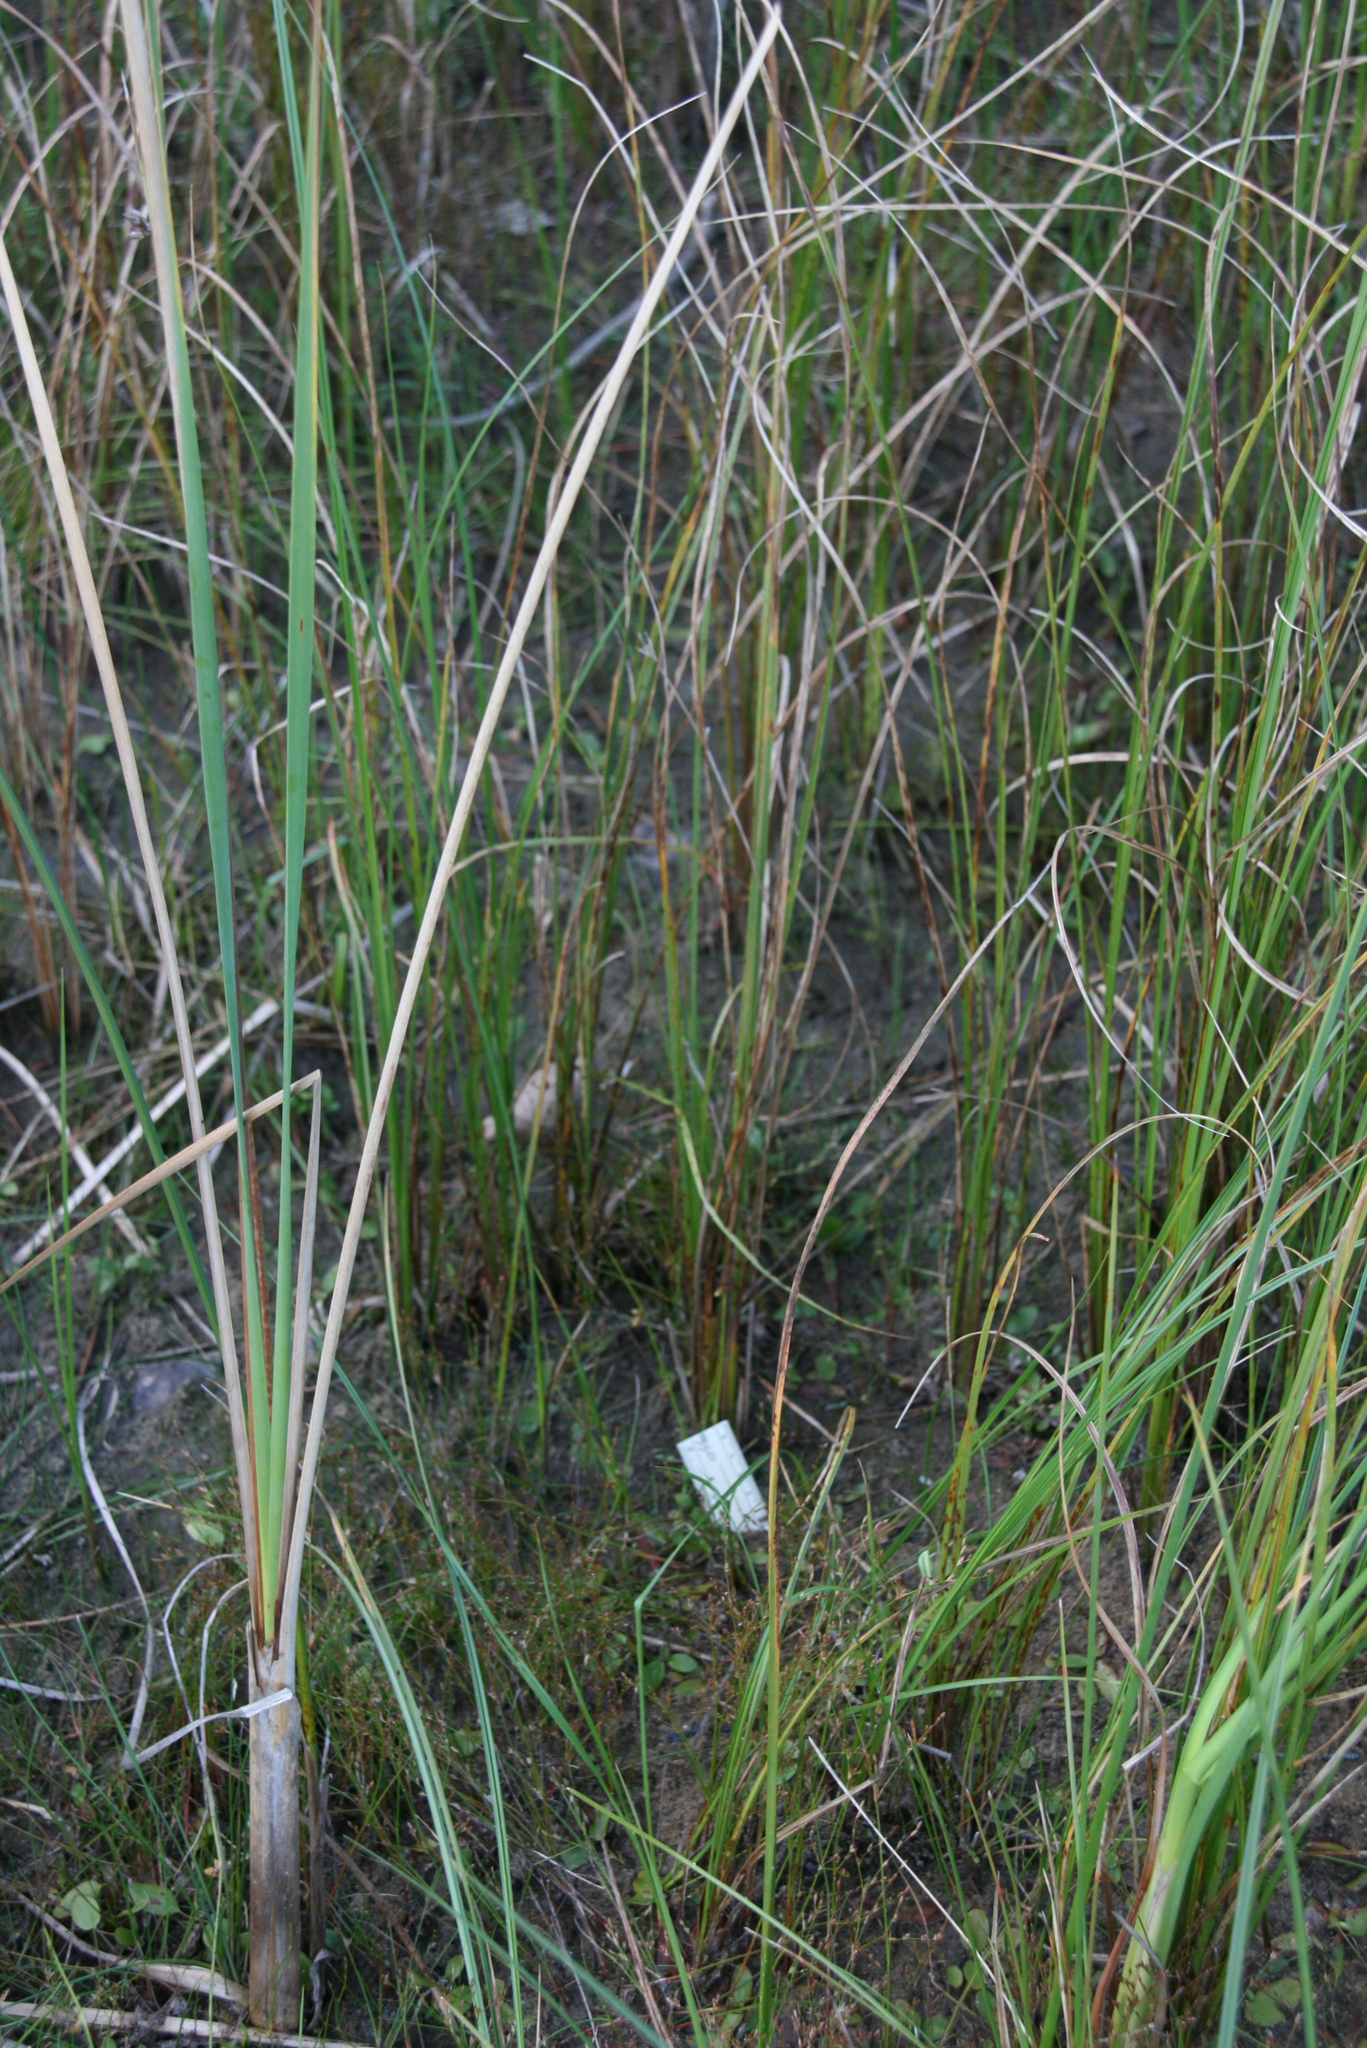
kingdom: Plantae
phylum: Tracheophyta
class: Liliopsida
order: Poales
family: Cyperaceae
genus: Schoenoplectiella
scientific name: Schoenoplectiella purshiana
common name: Weak-stalked bulrush
